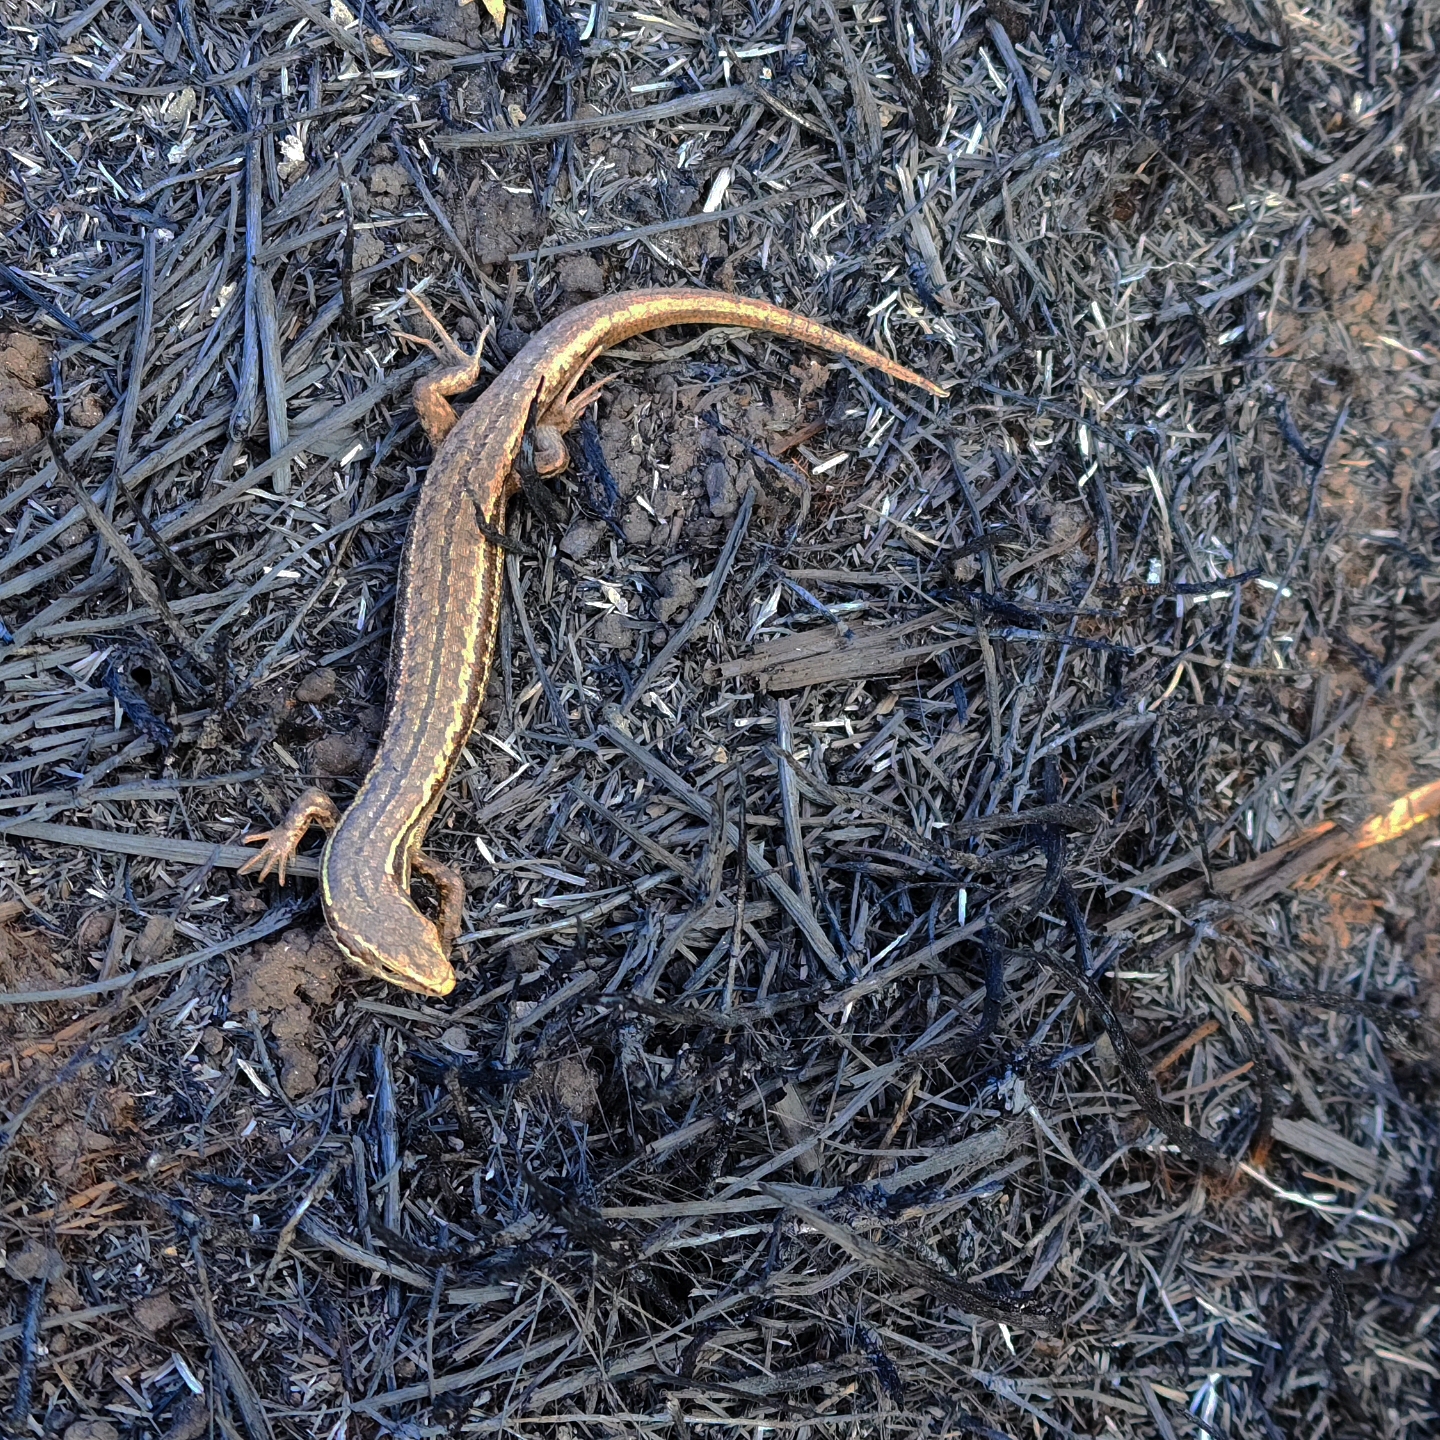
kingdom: Animalia
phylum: Chordata
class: Squamata
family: Scincidae
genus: Oligosoma
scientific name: Oligosoma maccanni
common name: Mccann’s skink
